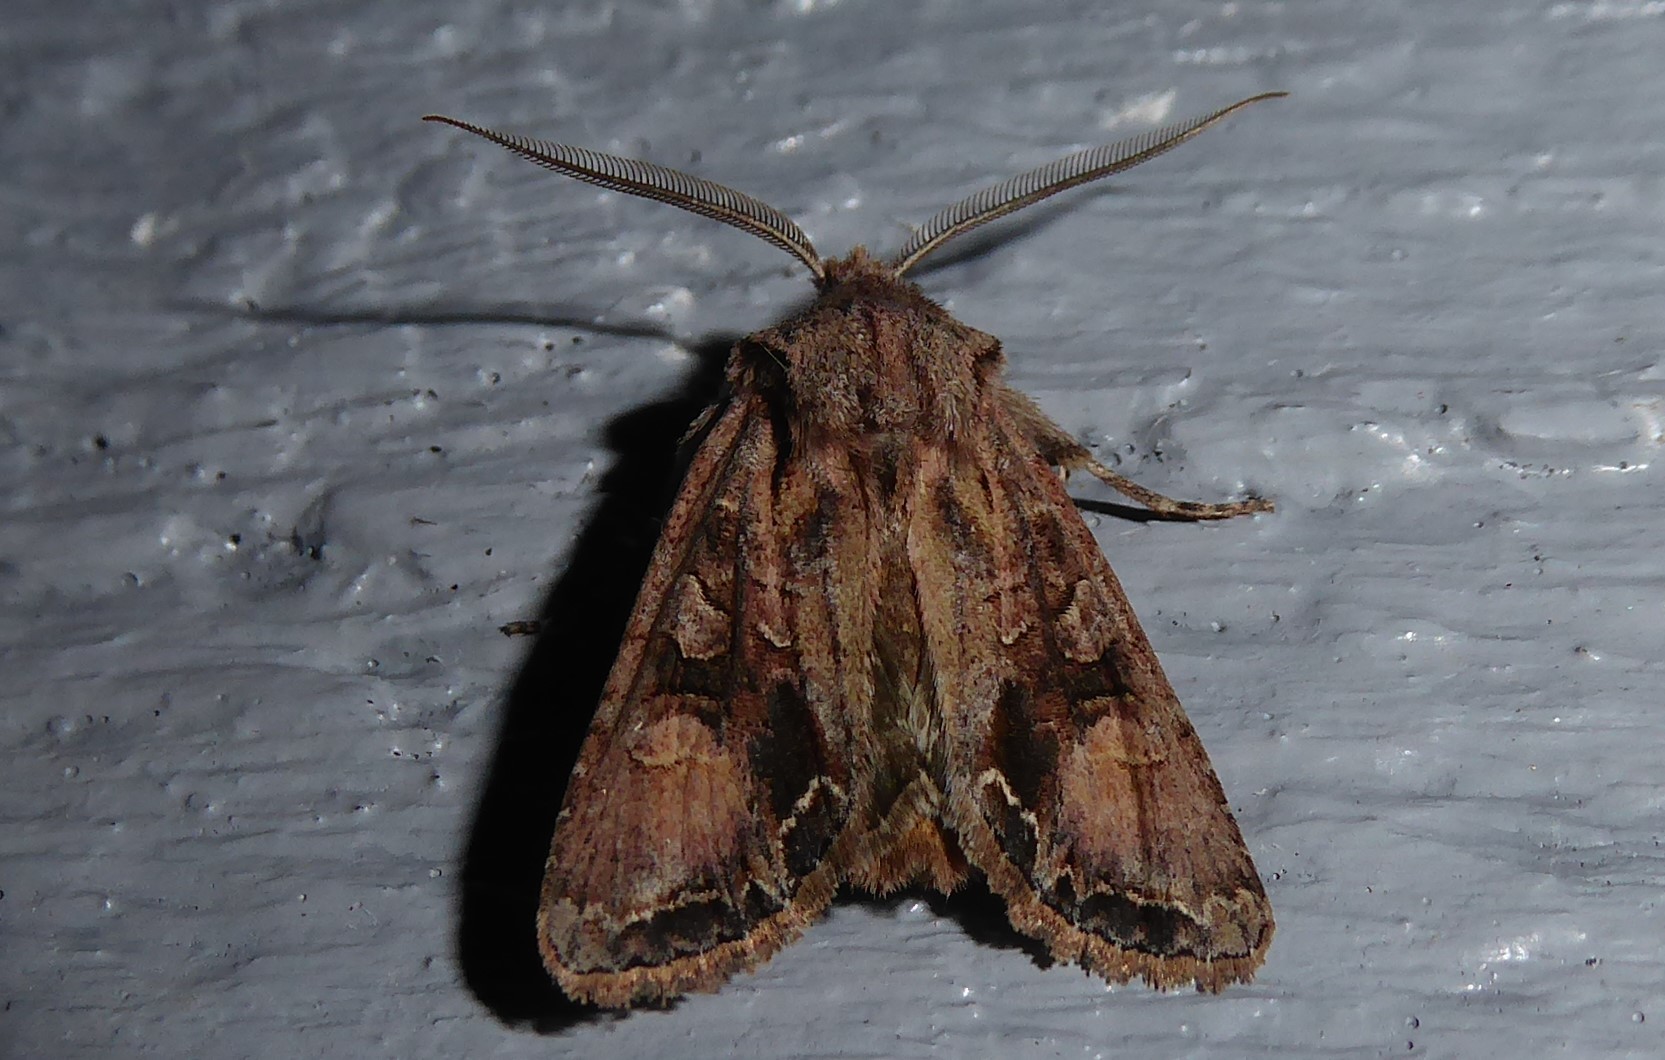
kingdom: Animalia
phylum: Arthropoda
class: Insecta
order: Lepidoptera
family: Noctuidae
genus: Ichneutica
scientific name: Ichneutica
